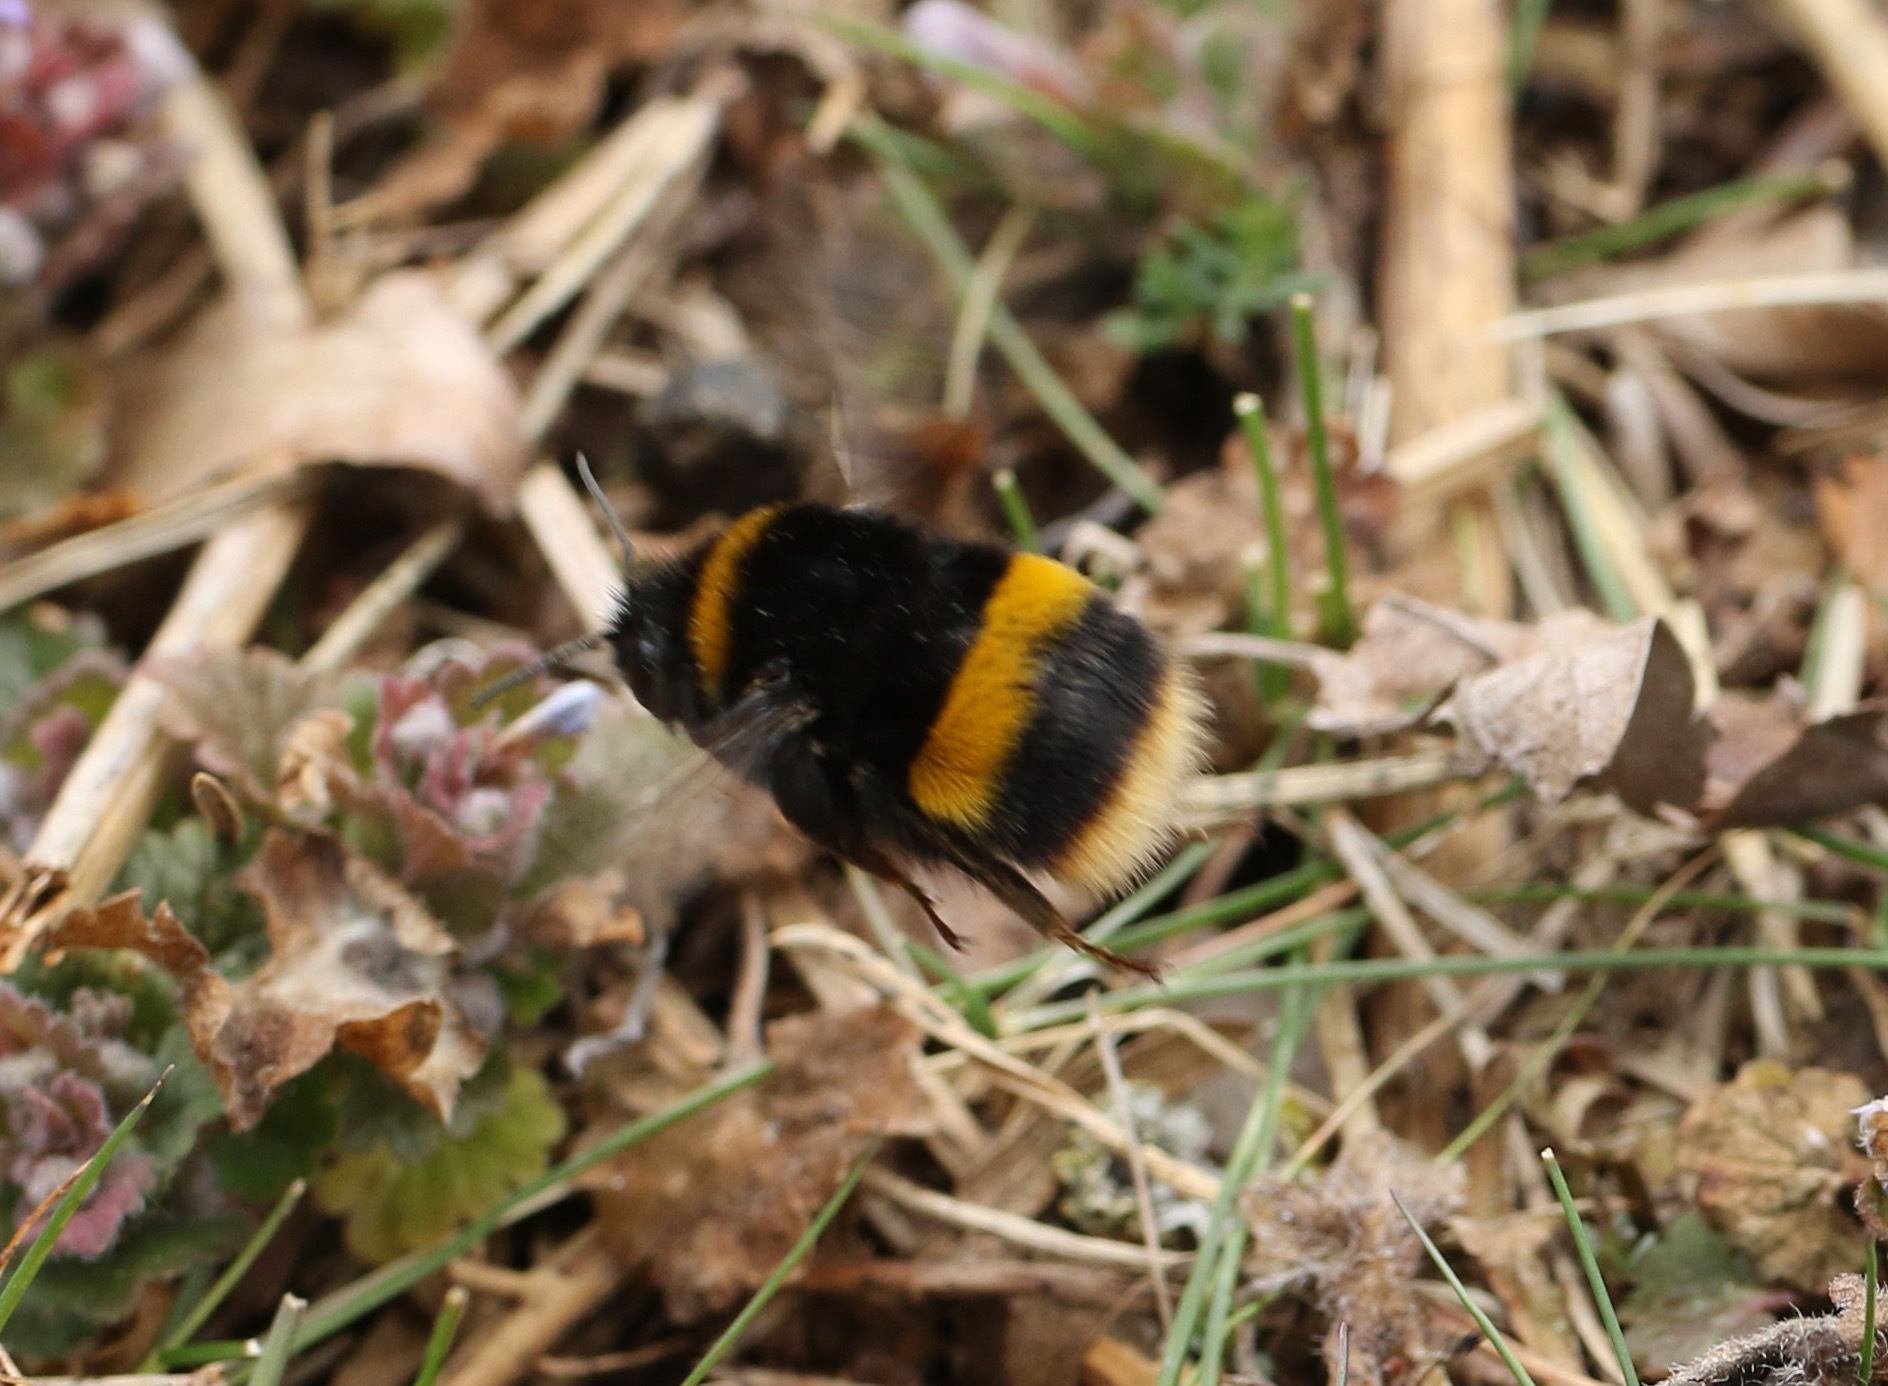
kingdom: Animalia
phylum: Arthropoda
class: Insecta
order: Hymenoptera
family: Apidae
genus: Bombus
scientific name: Bombus terrestris
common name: Buff-tailed bumblebee
